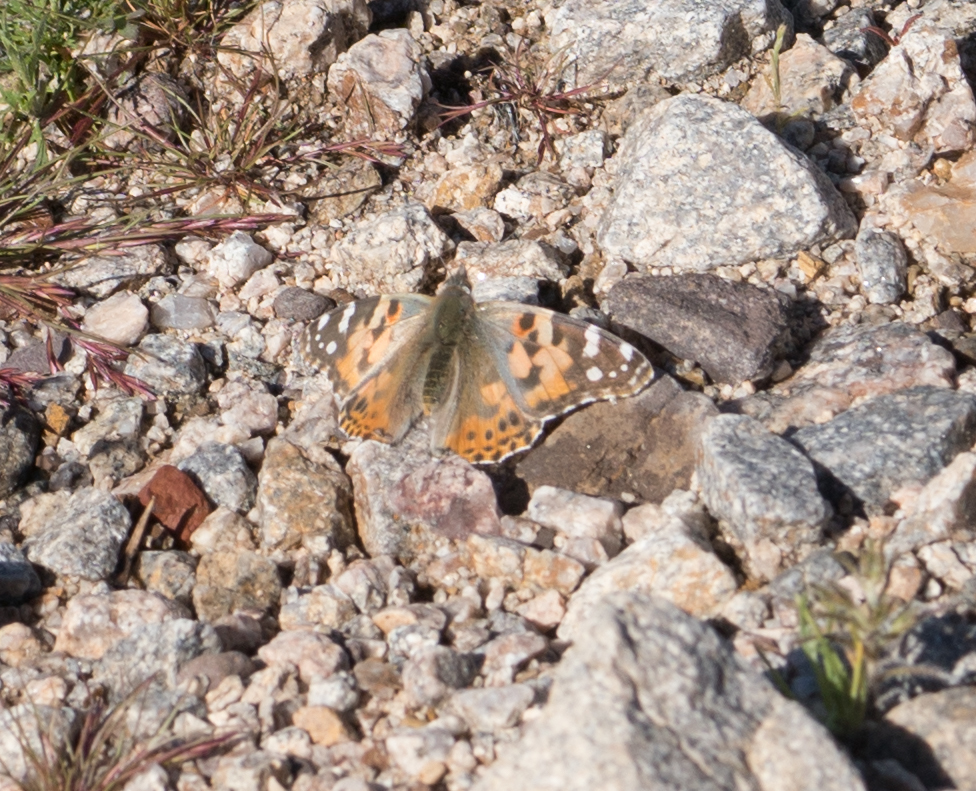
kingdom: Animalia
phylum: Arthropoda
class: Insecta
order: Lepidoptera
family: Nymphalidae
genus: Vanessa
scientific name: Vanessa cardui
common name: Painted lady
